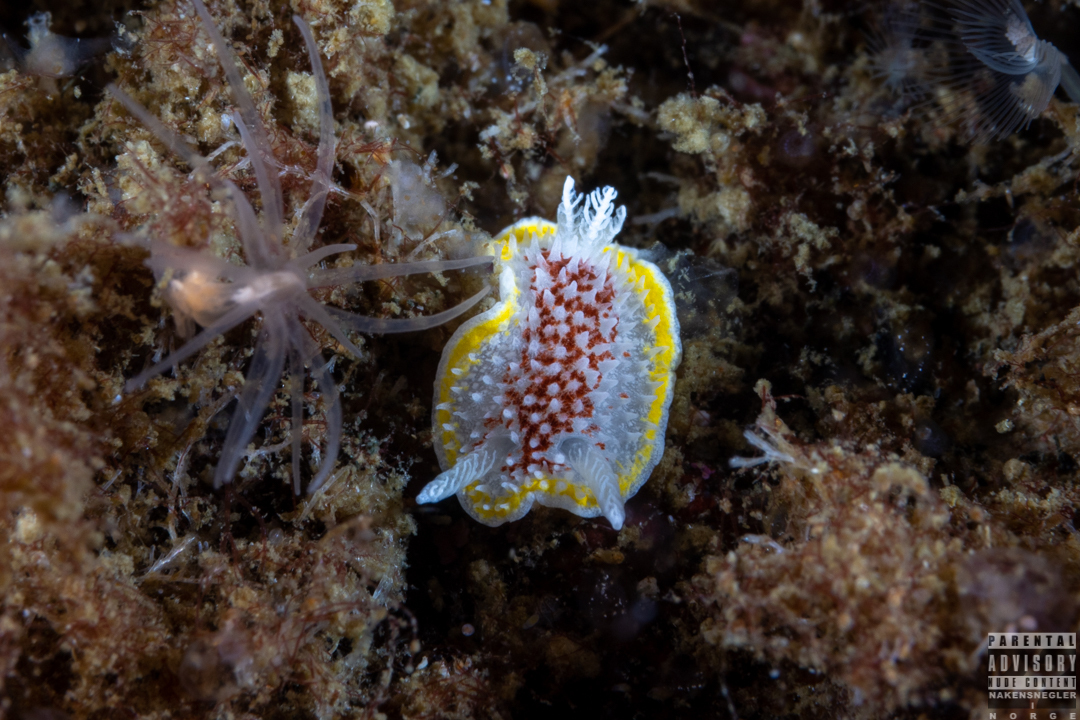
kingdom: Animalia
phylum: Mollusca
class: Gastropoda
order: Nudibranchia
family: Calycidorididae
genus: Diaphorodoris
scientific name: Diaphorodoris luteocincta
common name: Fried egg nudibranch
